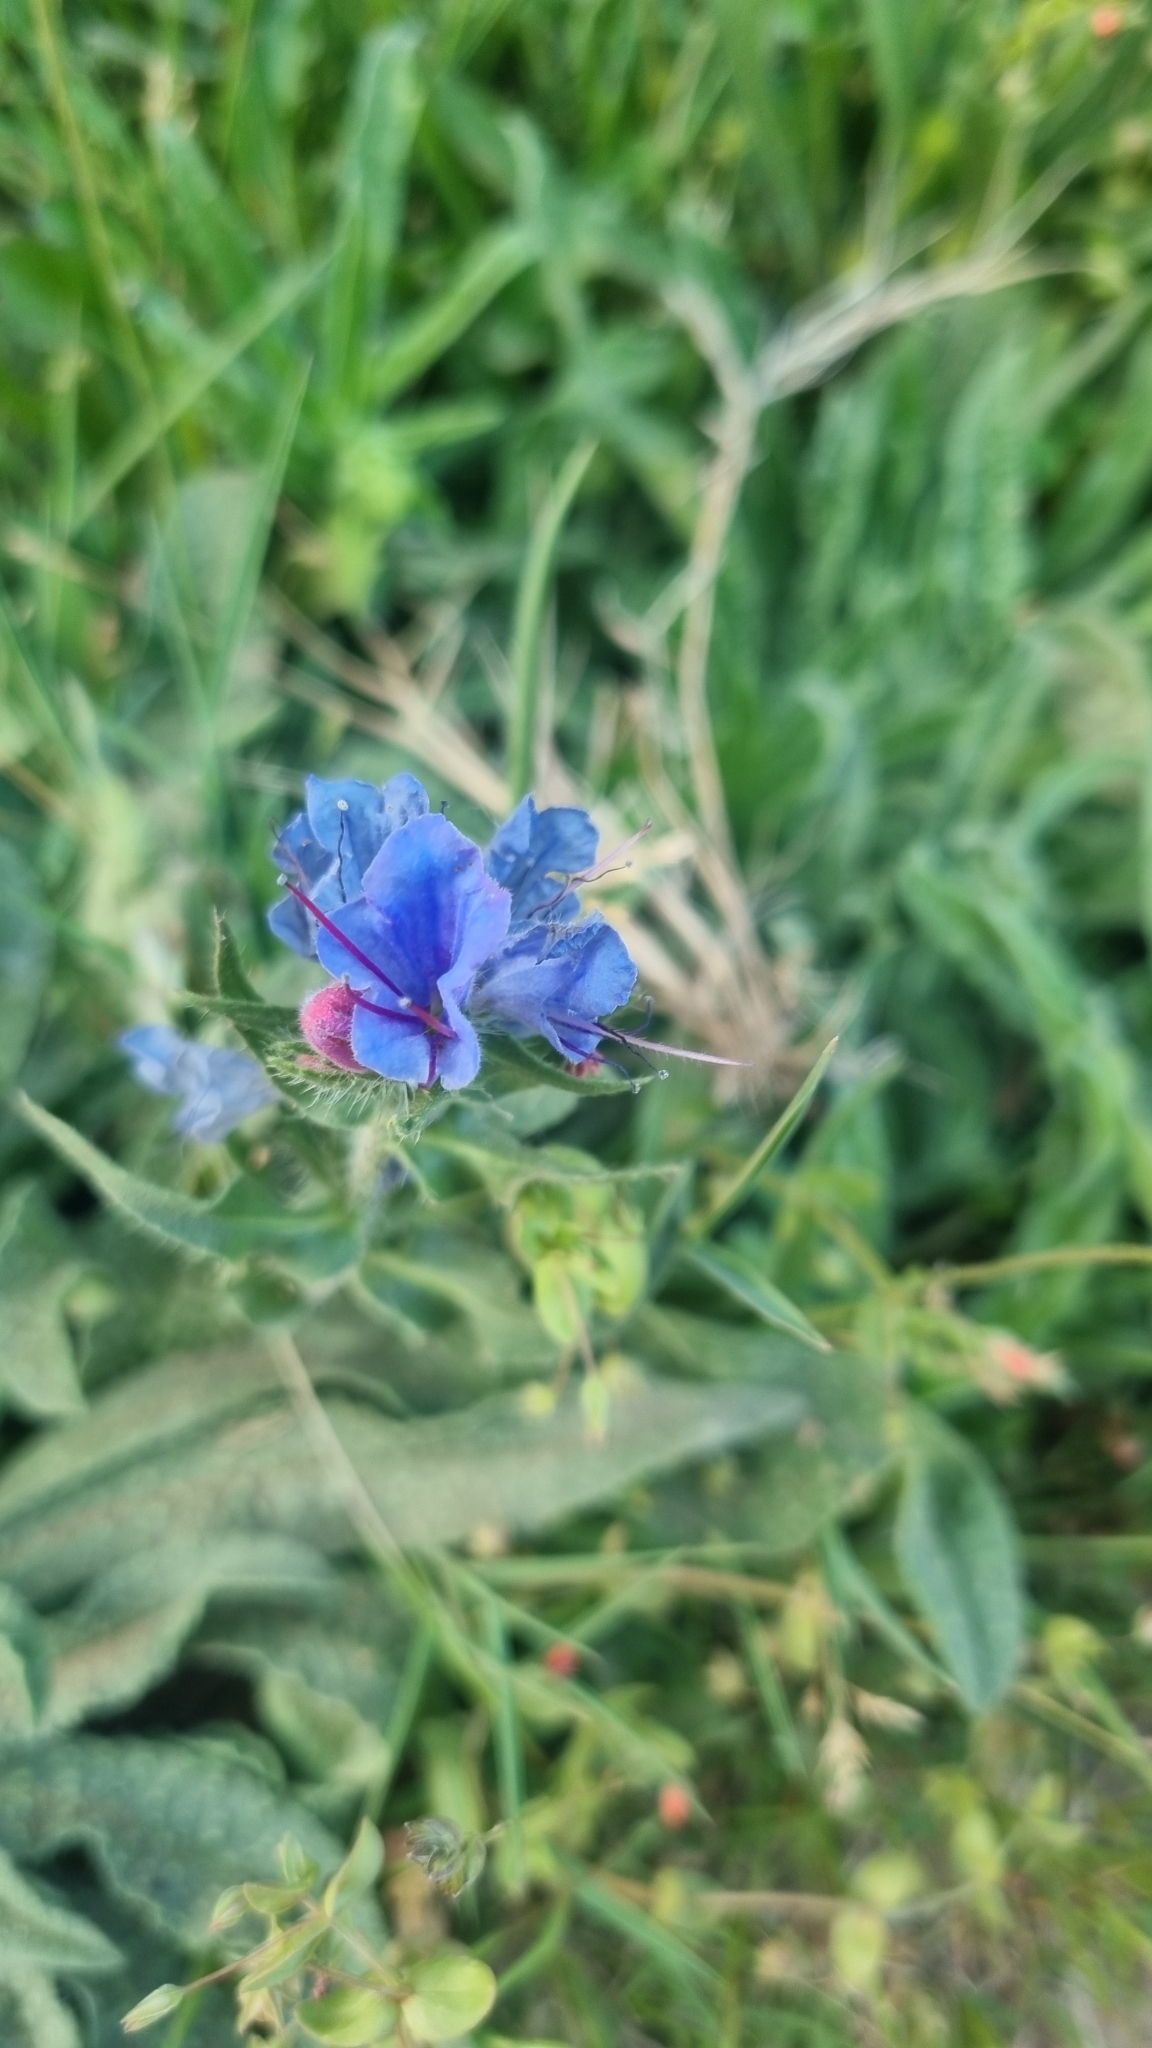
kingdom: Plantae
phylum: Tracheophyta
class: Magnoliopsida
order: Boraginales
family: Boraginaceae
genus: Echium
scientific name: Echium vulgare
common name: Common viper's bugloss
